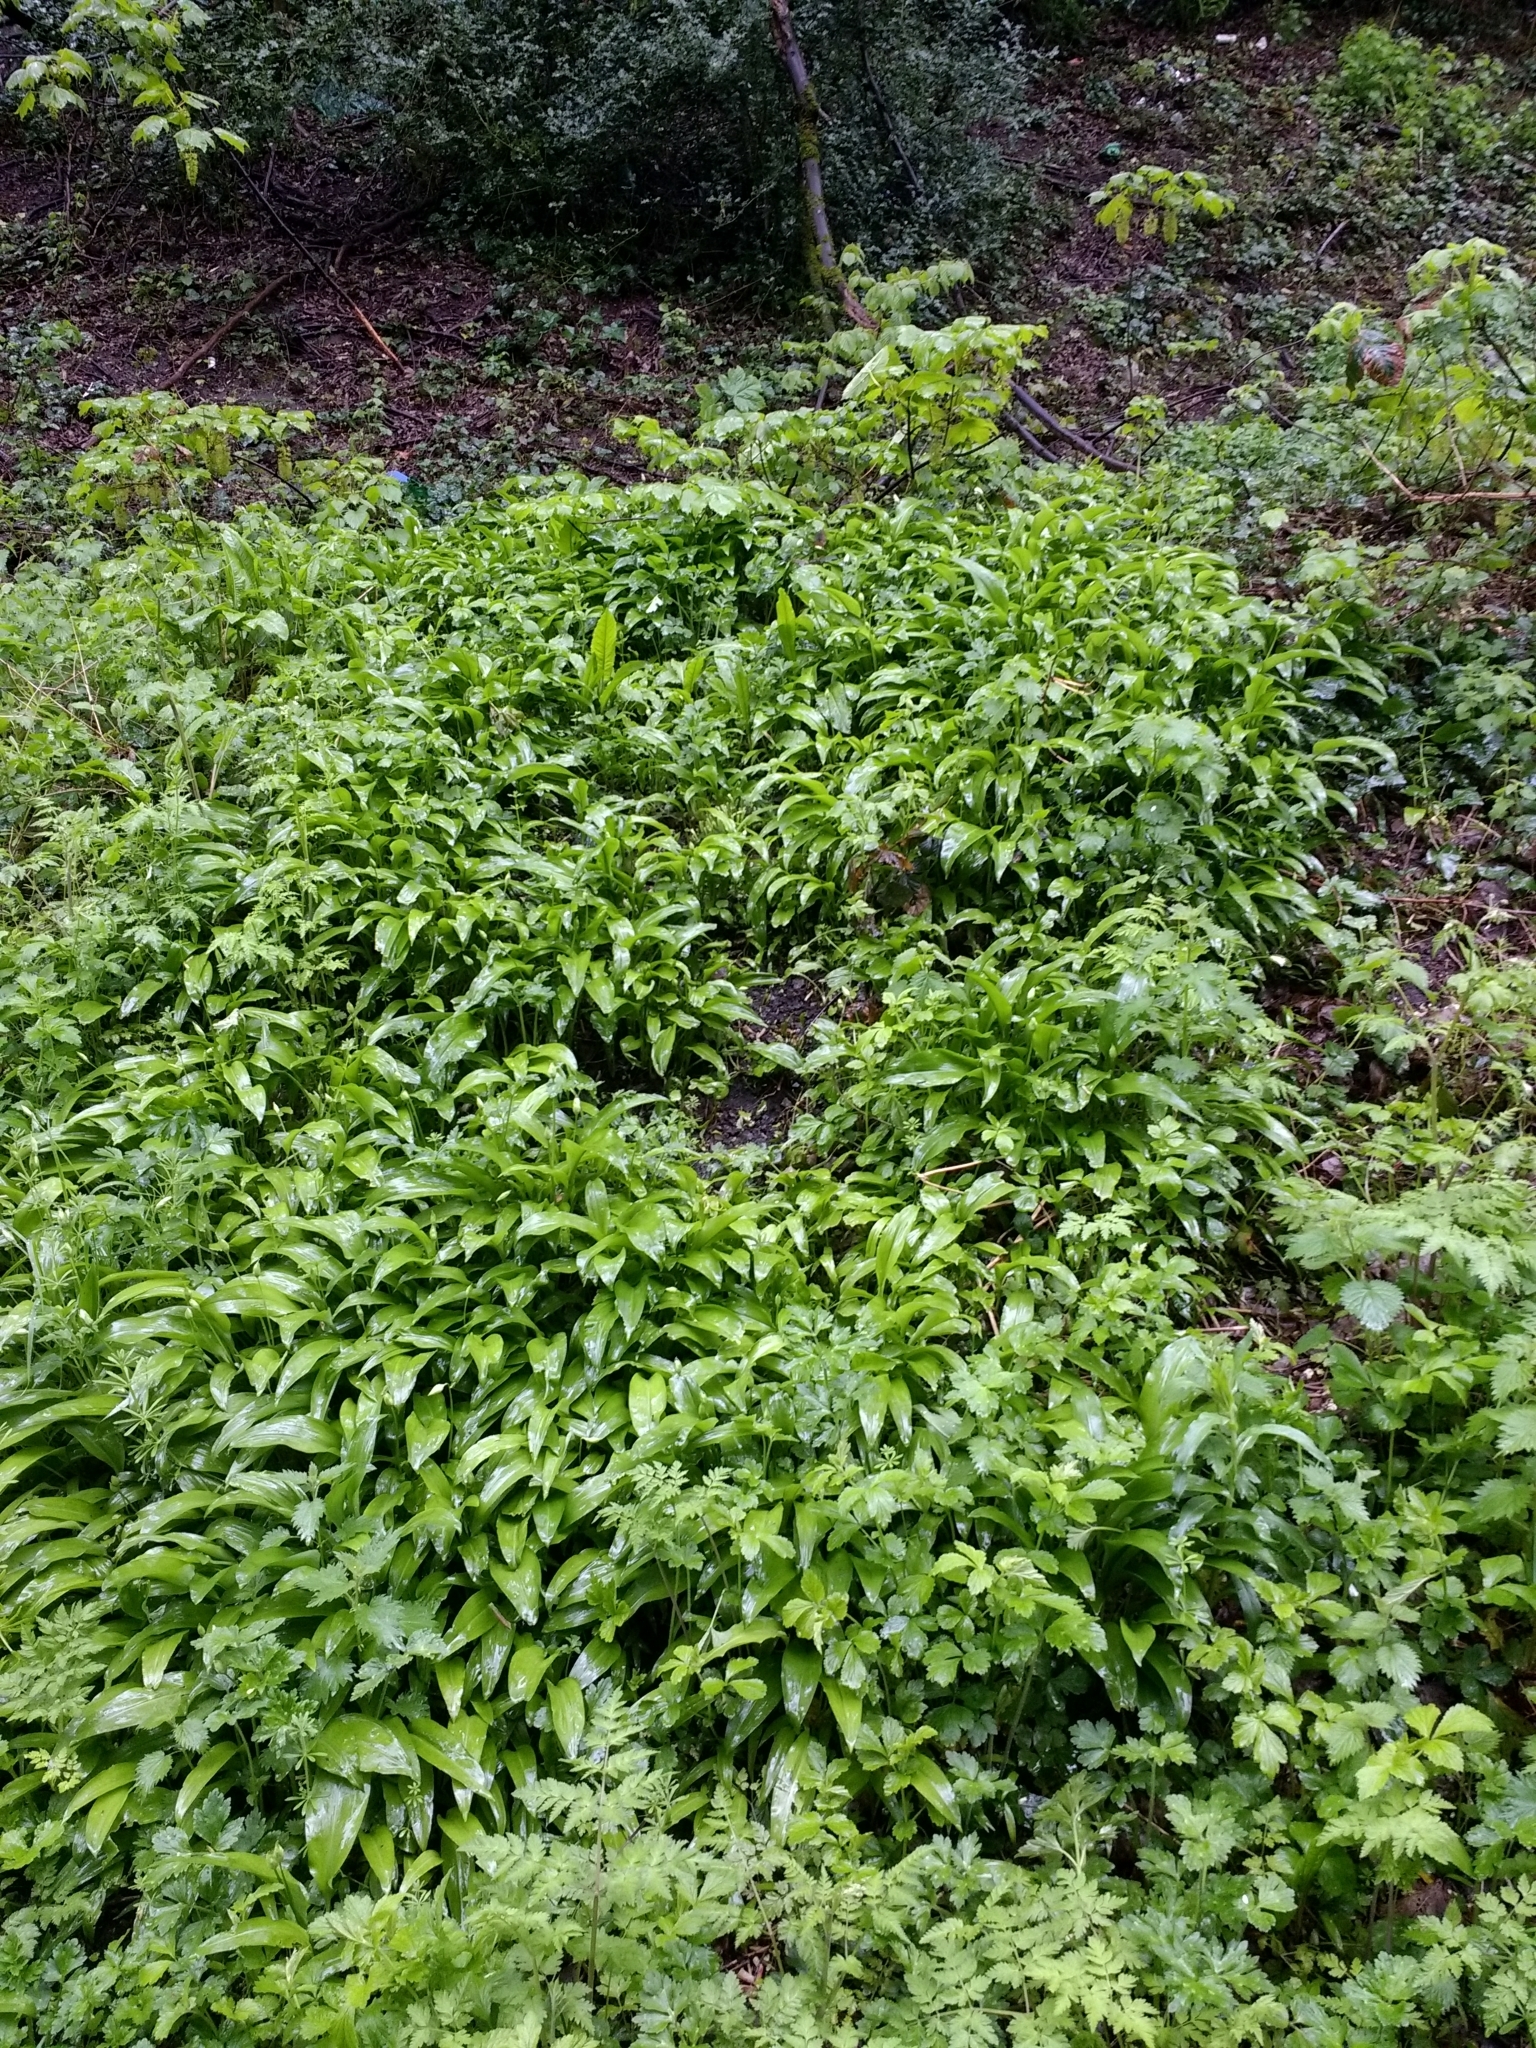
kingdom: Plantae
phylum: Tracheophyta
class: Liliopsida
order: Asparagales
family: Amaryllidaceae
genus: Allium
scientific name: Allium ursinum
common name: Ramsons
